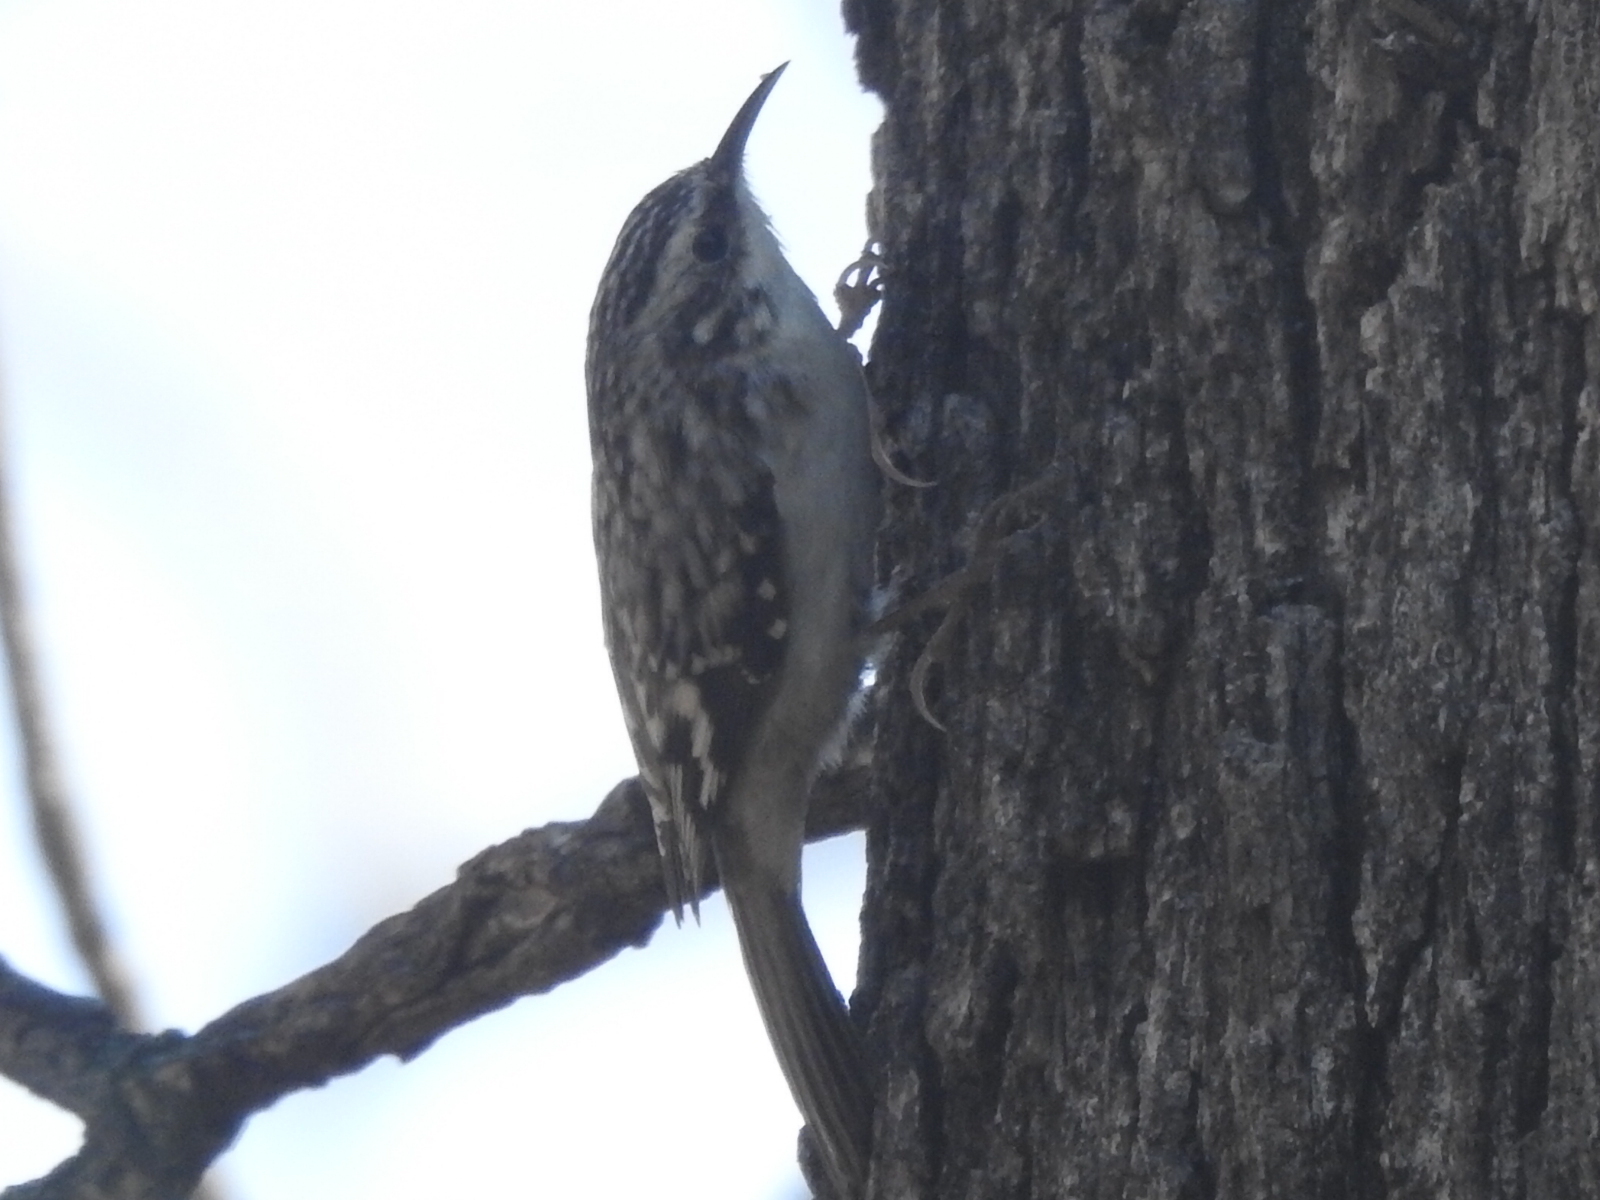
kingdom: Animalia
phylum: Chordata
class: Aves
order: Passeriformes
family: Certhiidae
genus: Certhia
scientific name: Certhia americana
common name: Brown creeper
